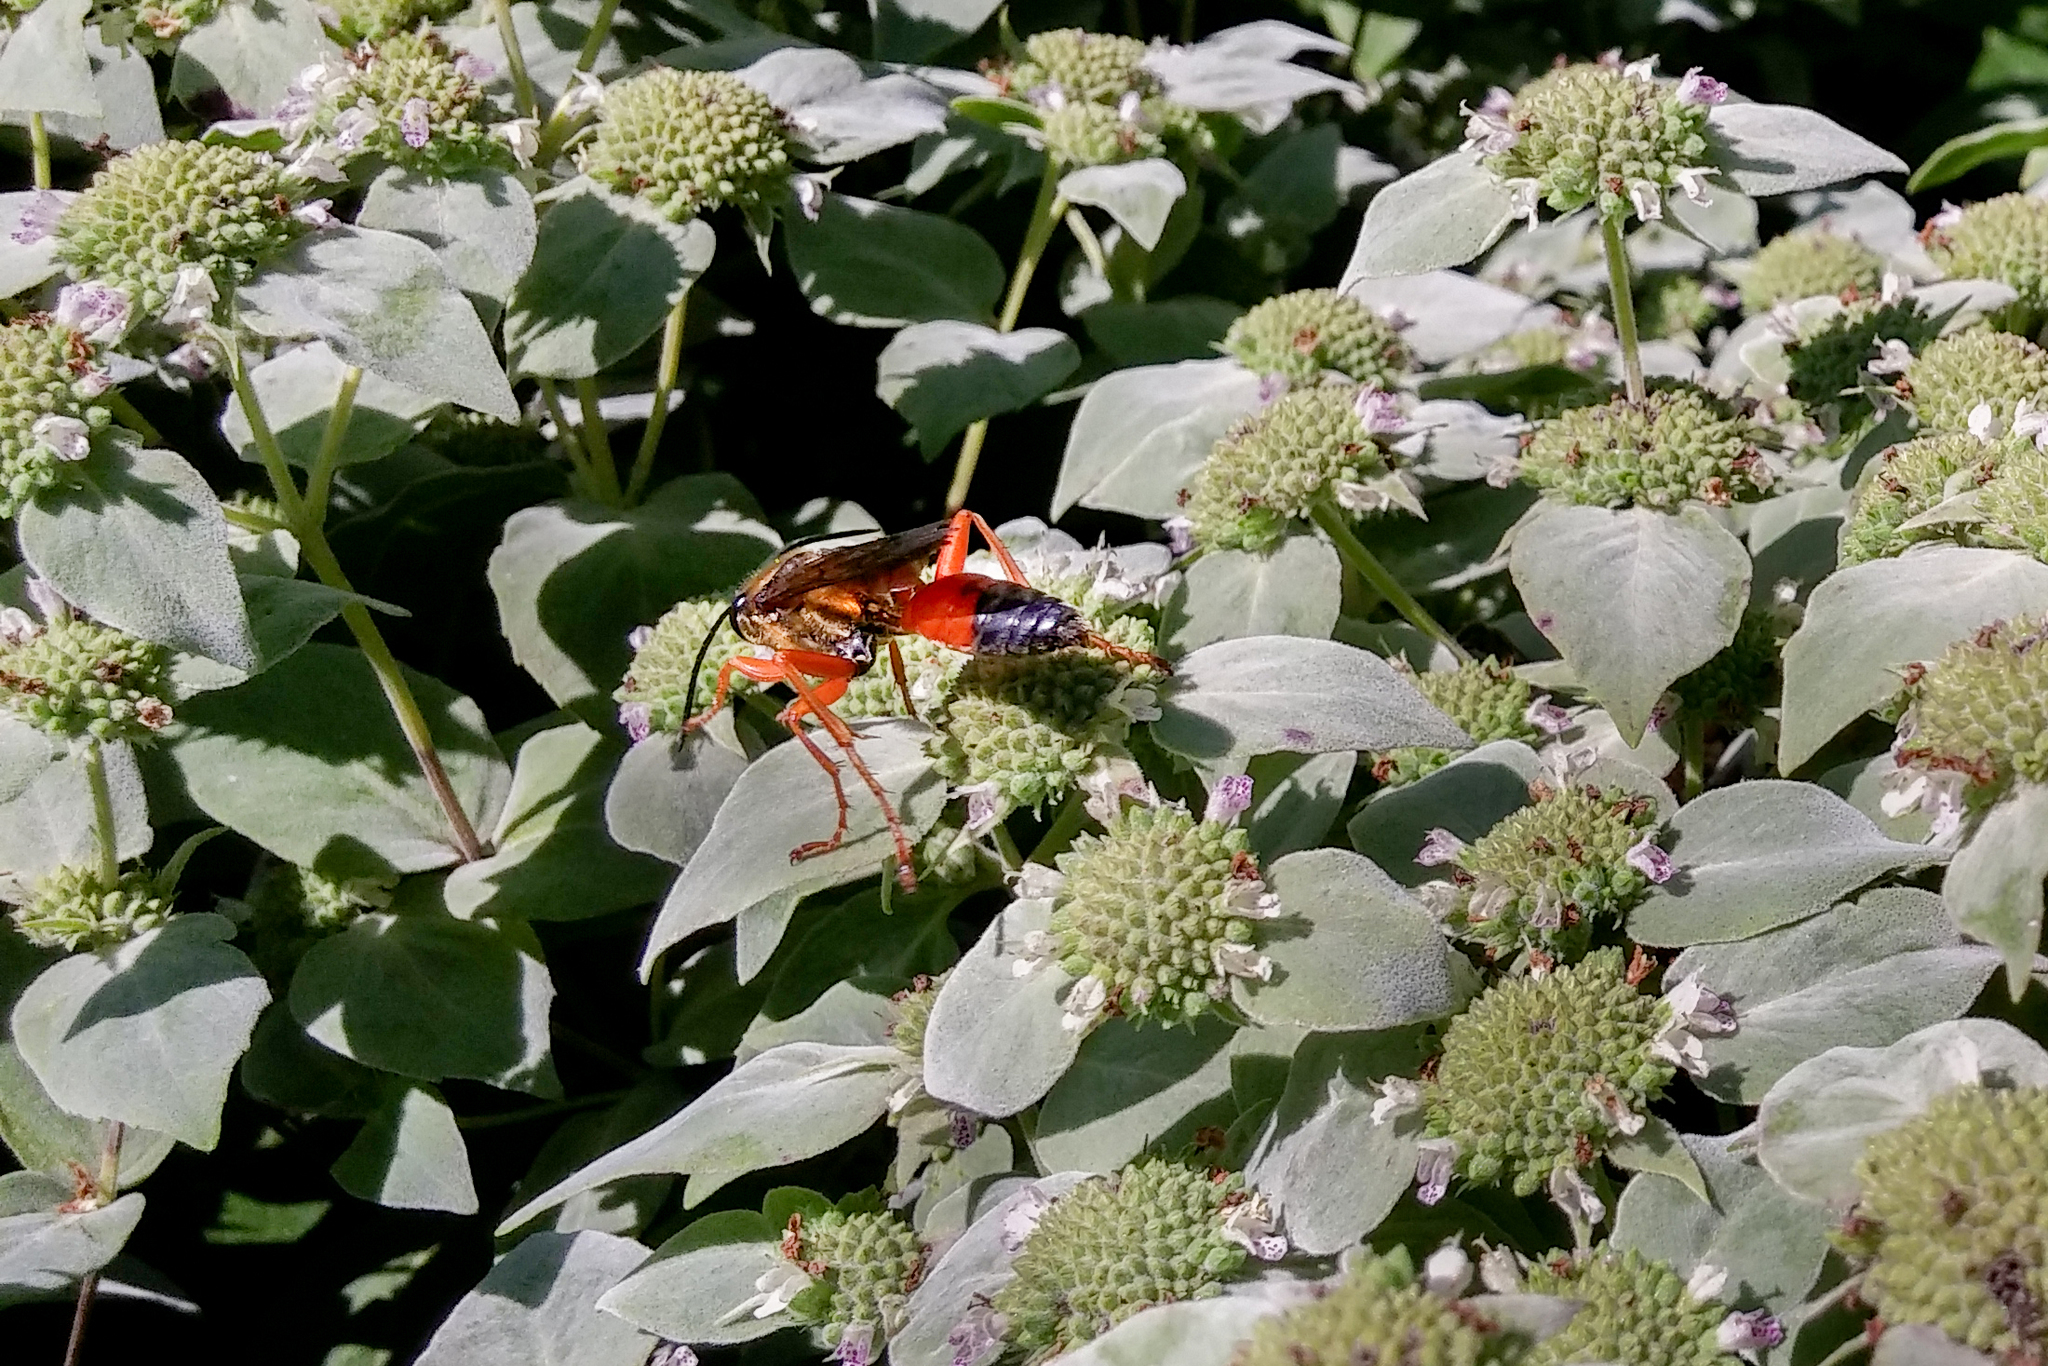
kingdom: Animalia
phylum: Arthropoda
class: Insecta
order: Hymenoptera
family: Sphecidae
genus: Sphex
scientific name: Sphex ichneumoneus
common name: Great golden digger wasp
